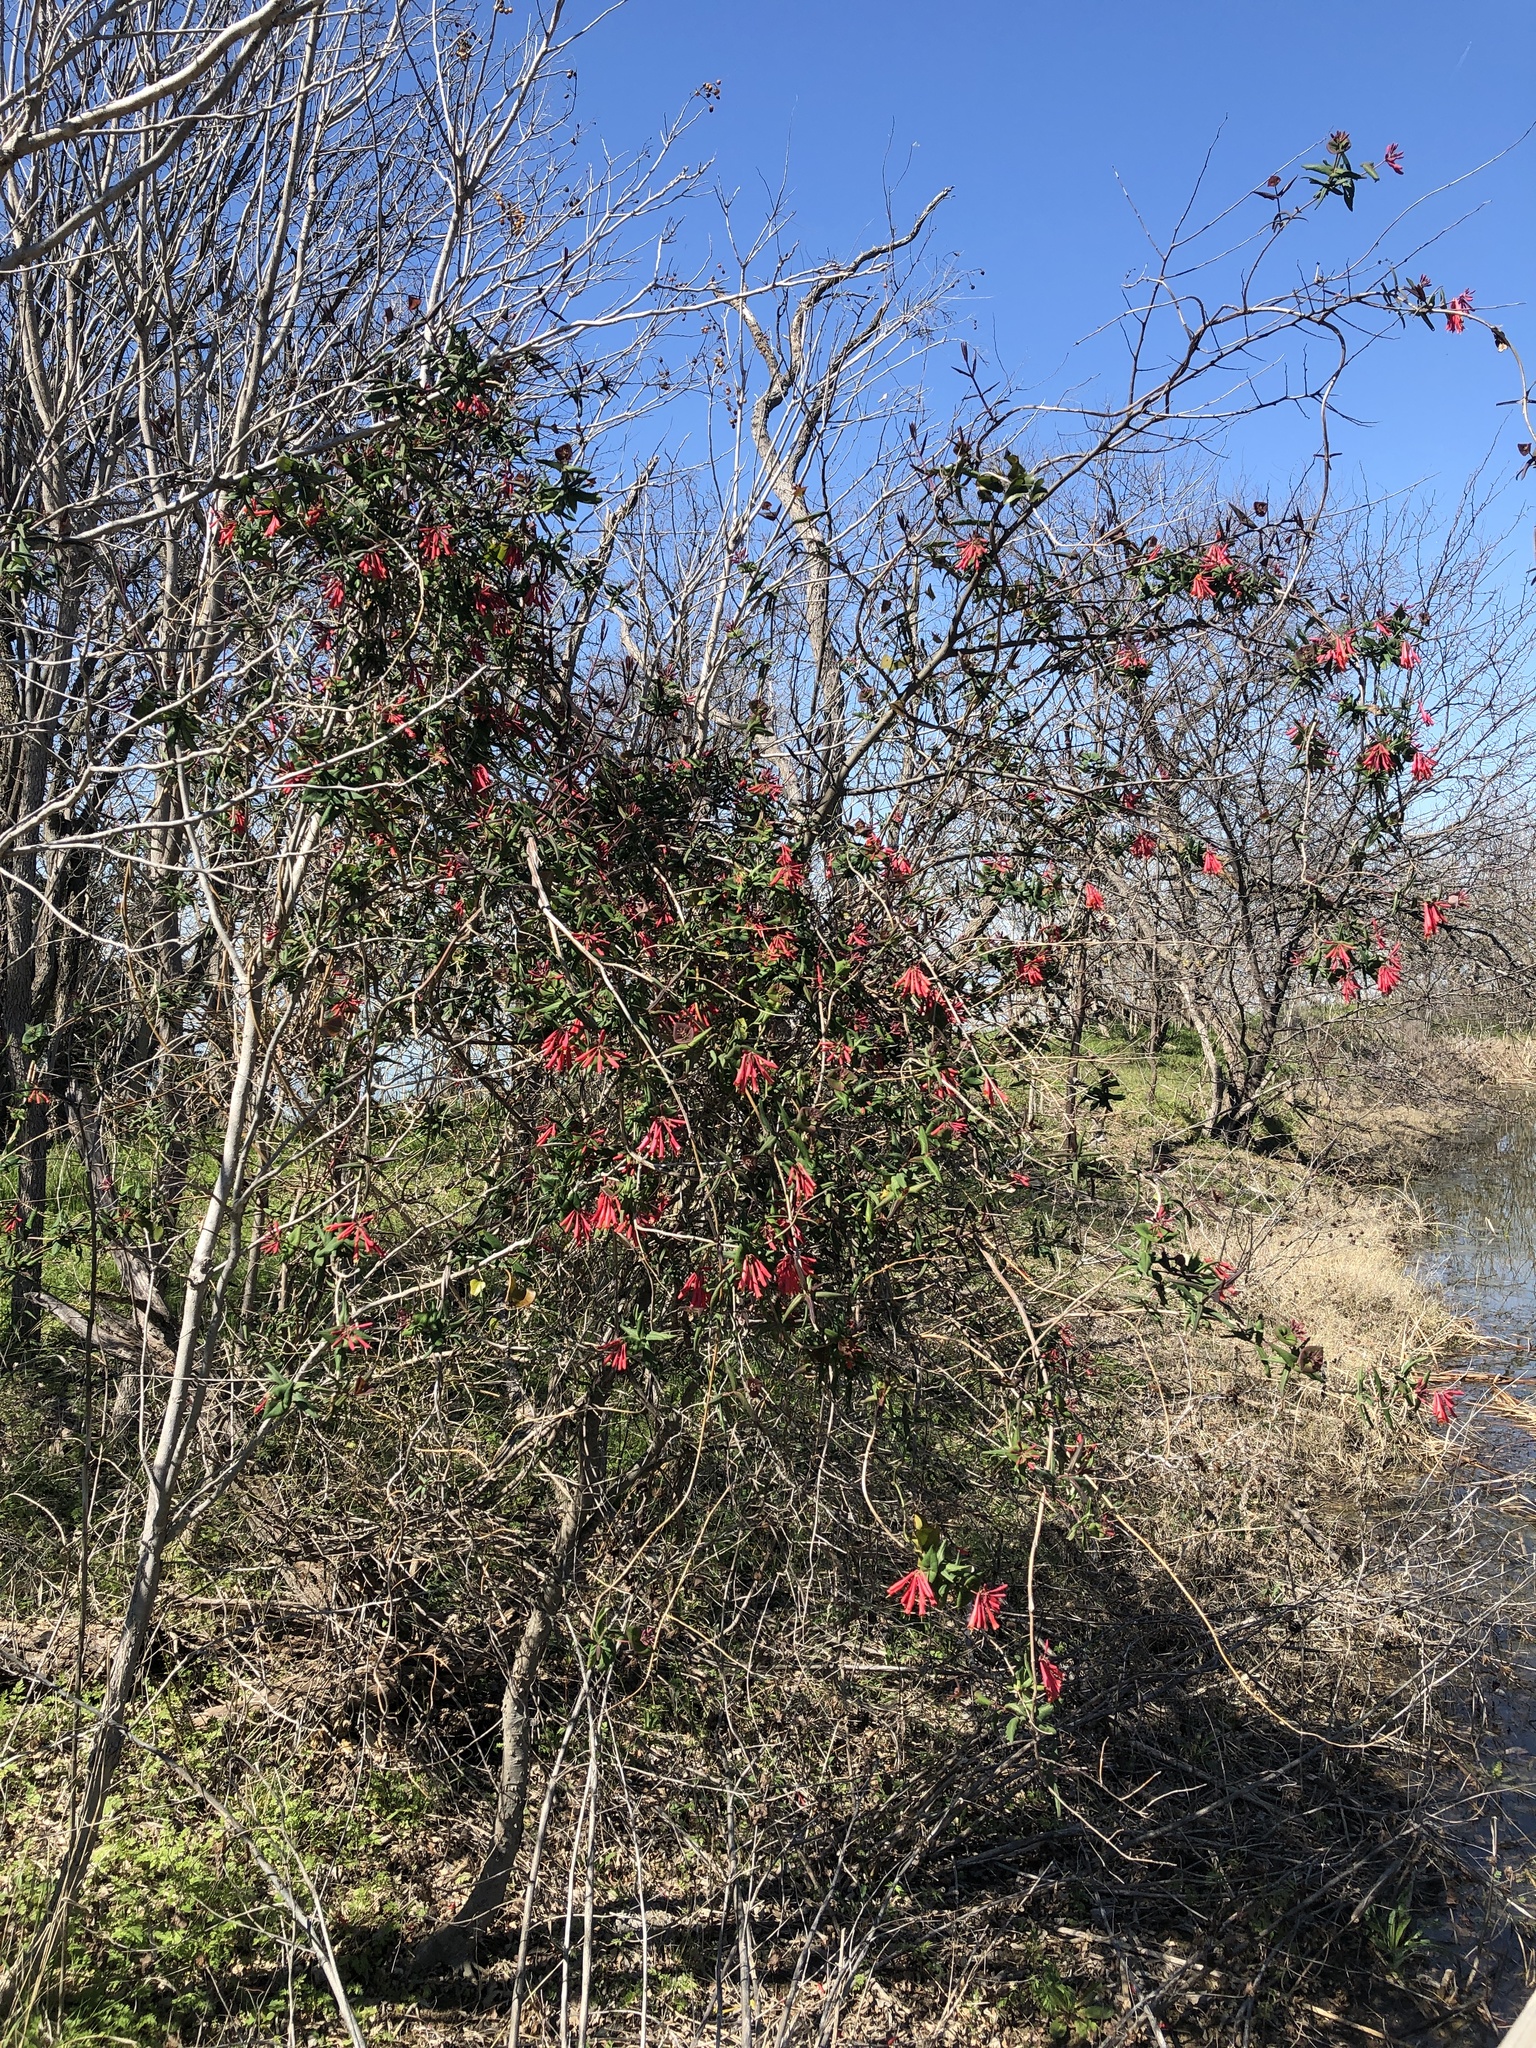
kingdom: Plantae
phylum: Tracheophyta
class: Magnoliopsida
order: Dipsacales
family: Caprifoliaceae
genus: Lonicera
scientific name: Lonicera sempervirens
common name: Coral honeysuckle
